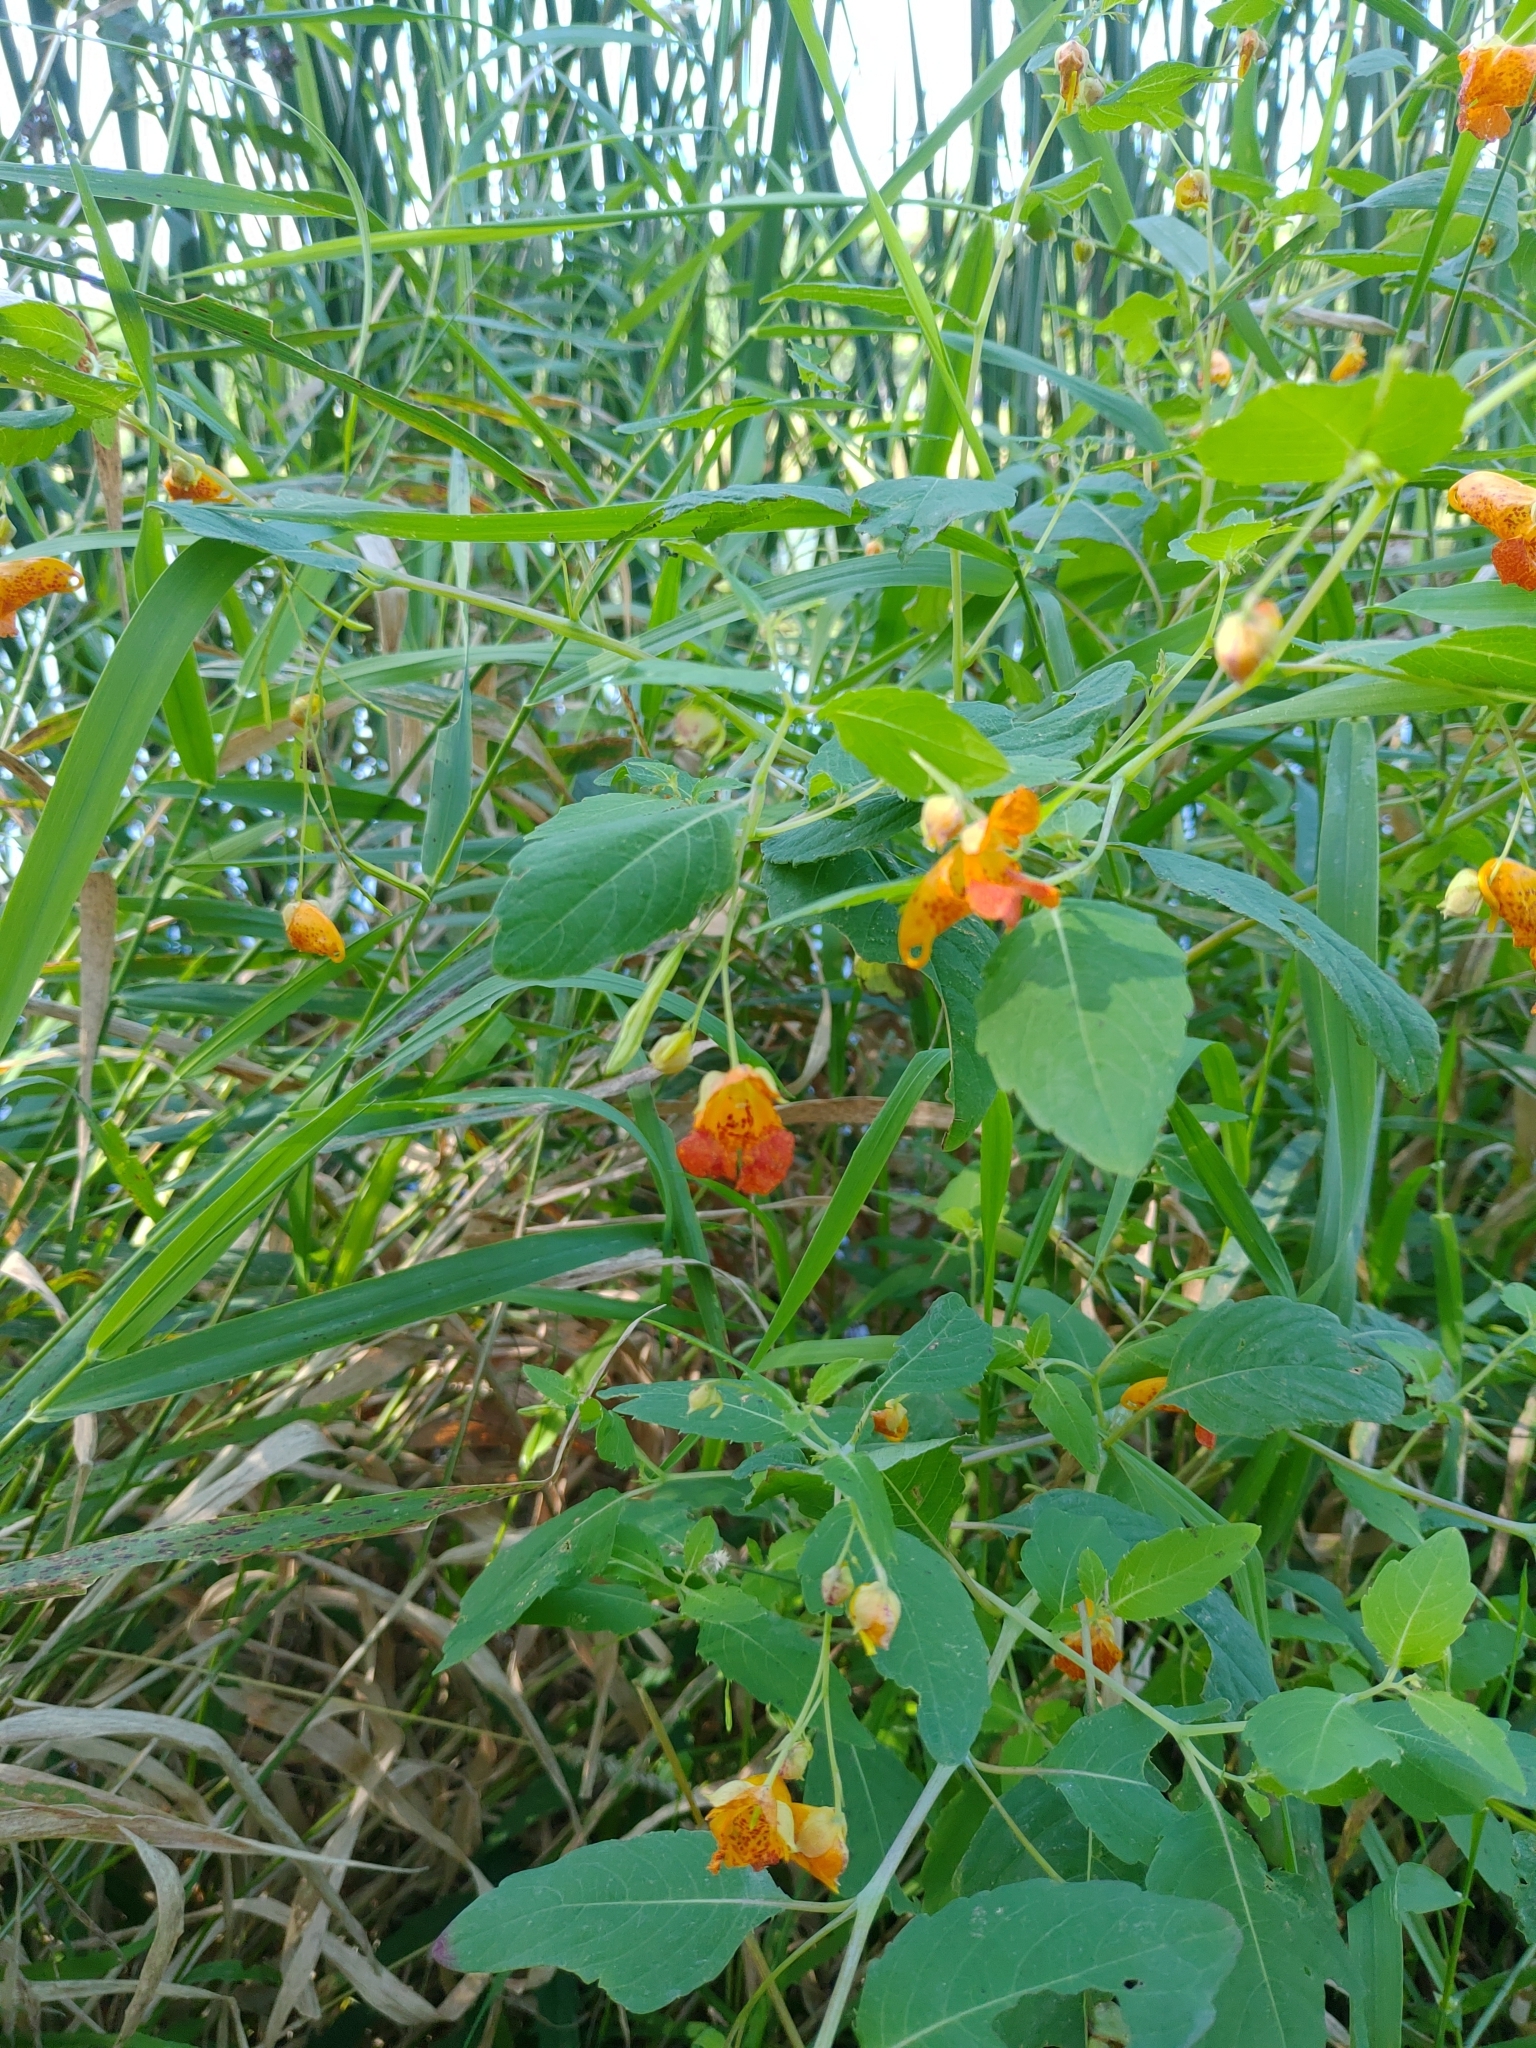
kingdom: Plantae
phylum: Tracheophyta
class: Magnoliopsida
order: Ericales
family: Balsaminaceae
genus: Impatiens
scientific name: Impatiens capensis
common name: Orange balsam
